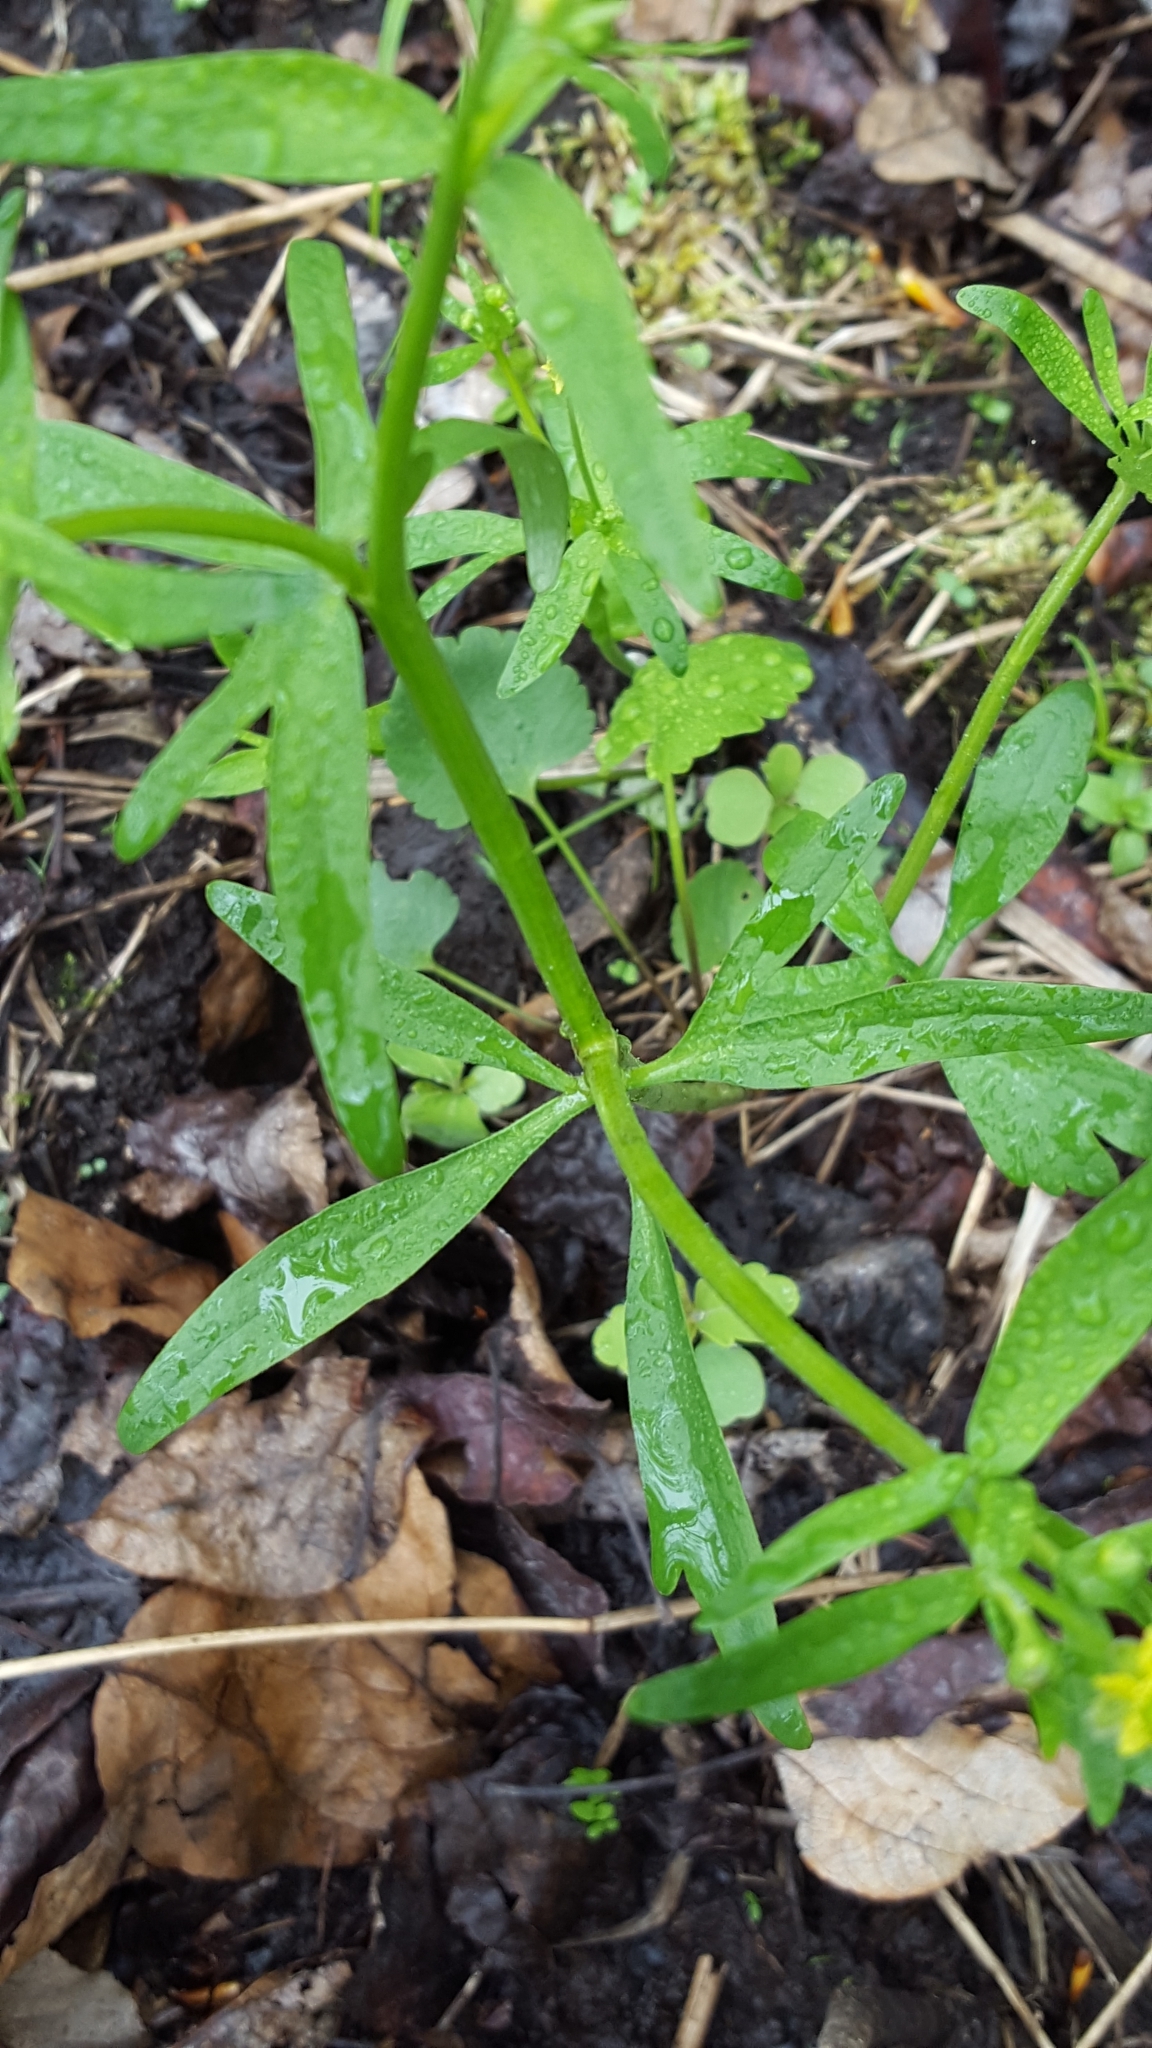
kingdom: Plantae
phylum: Tracheophyta
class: Magnoliopsida
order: Ranunculales
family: Ranunculaceae
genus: Ranunculus
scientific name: Ranunculus abortivus
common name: Early wood buttercup
